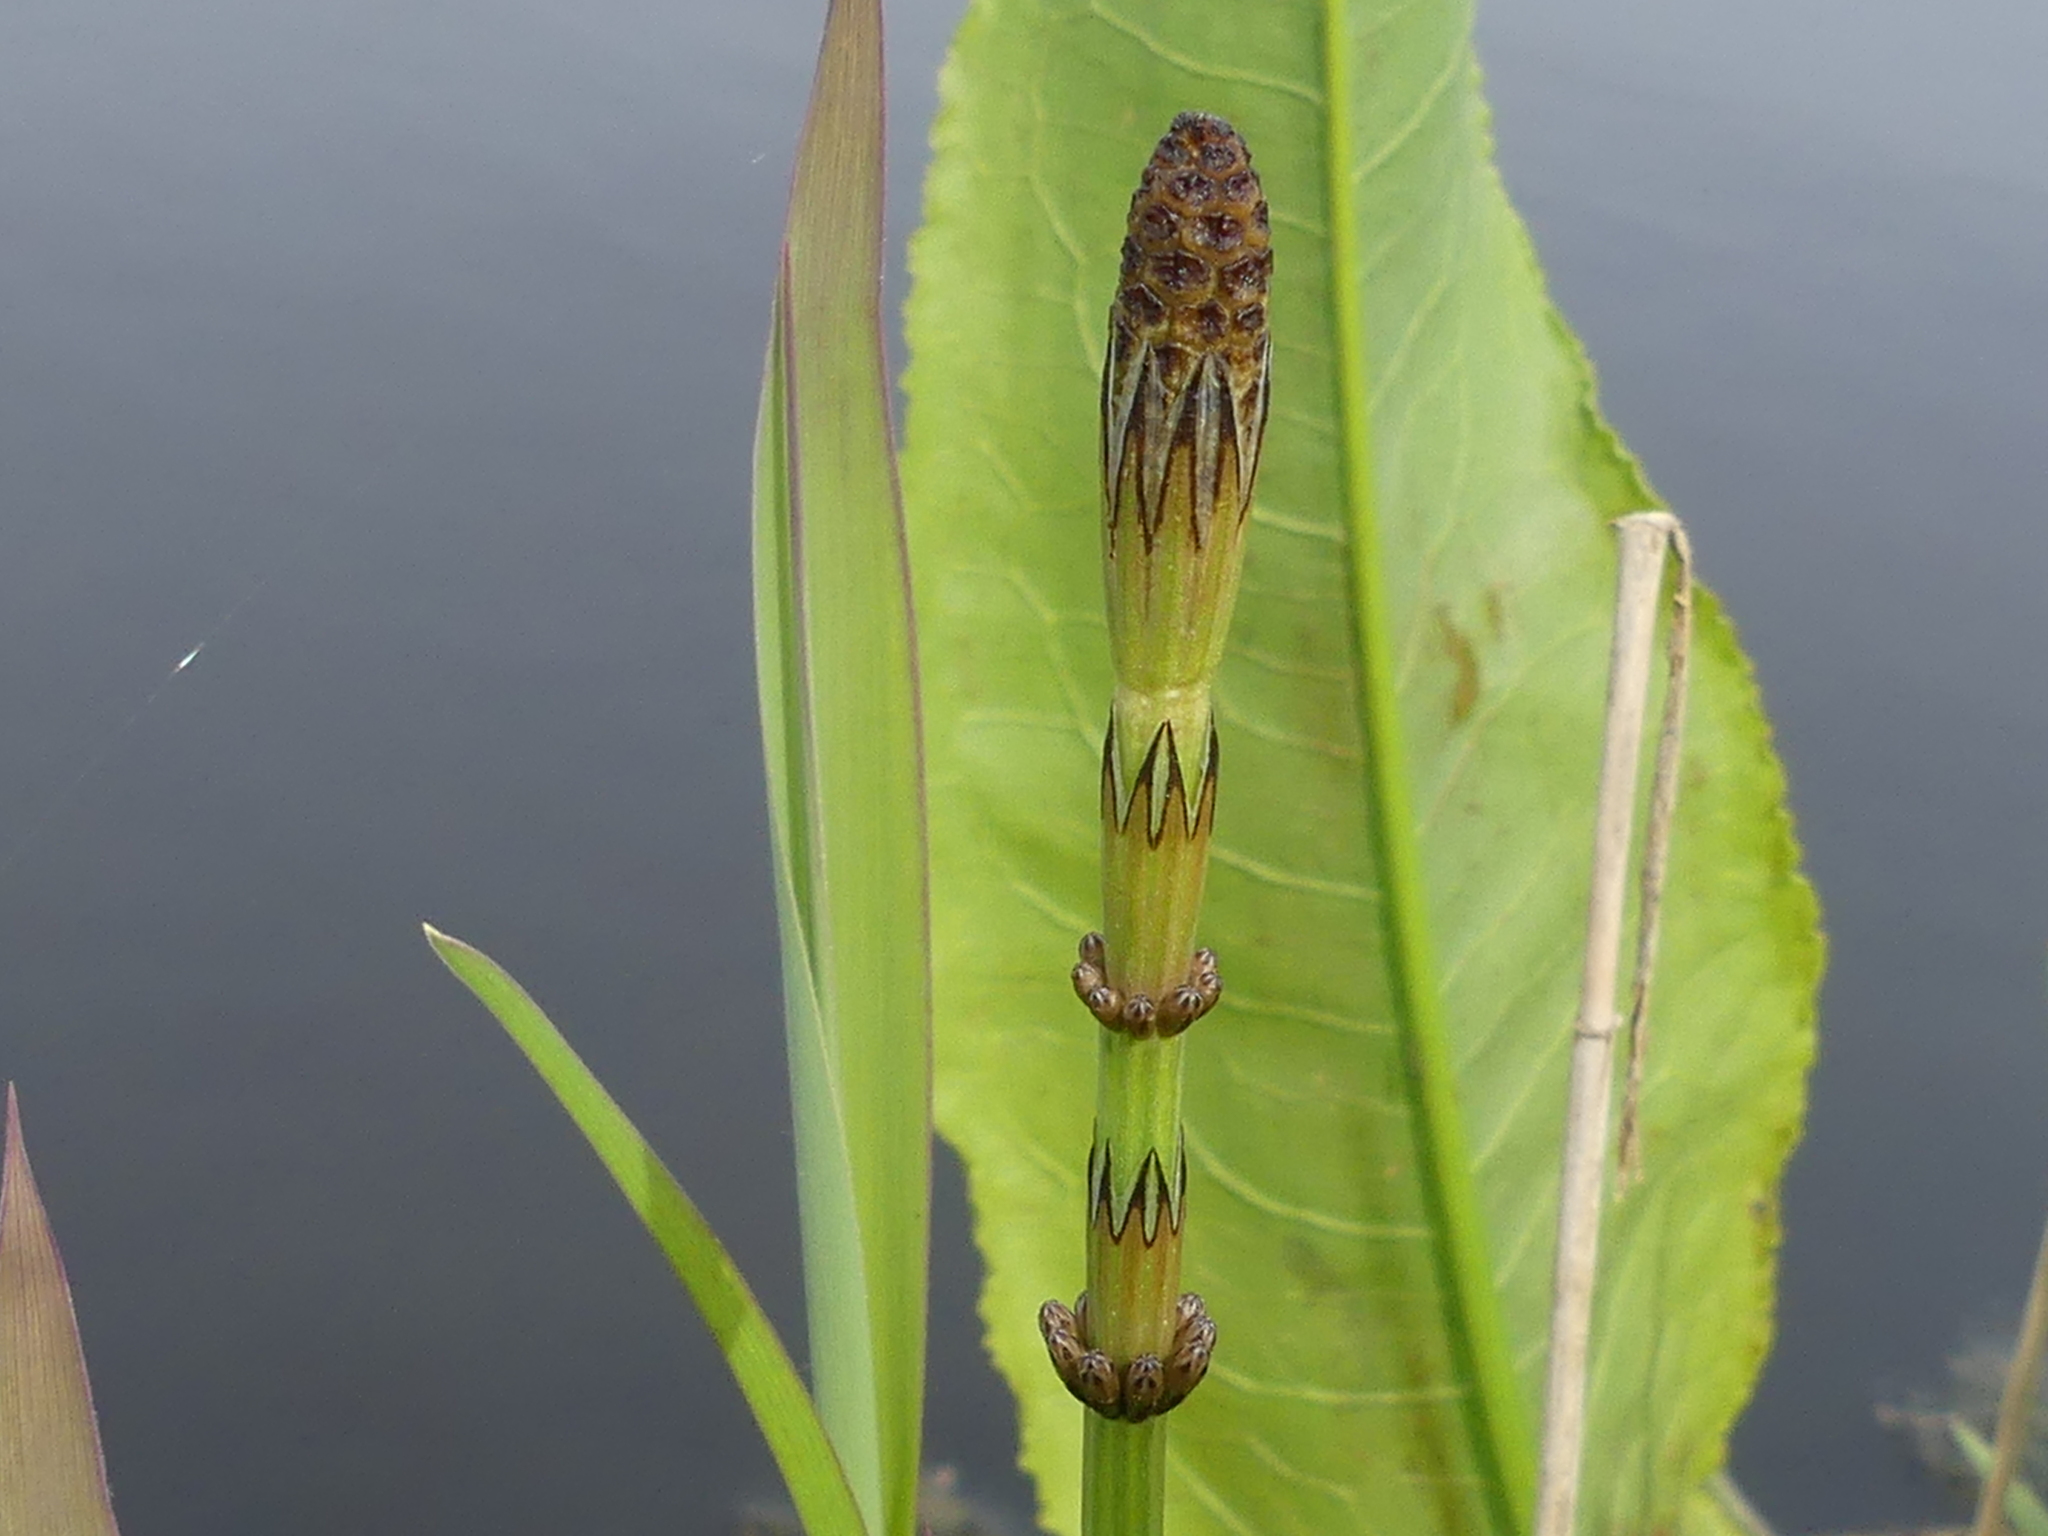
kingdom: Plantae
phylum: Tracheophyta
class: Polypodiopsida
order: Equisetales
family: Equisetaceae
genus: Equisetum
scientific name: Equisetum palustre
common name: Marsh horsetail
